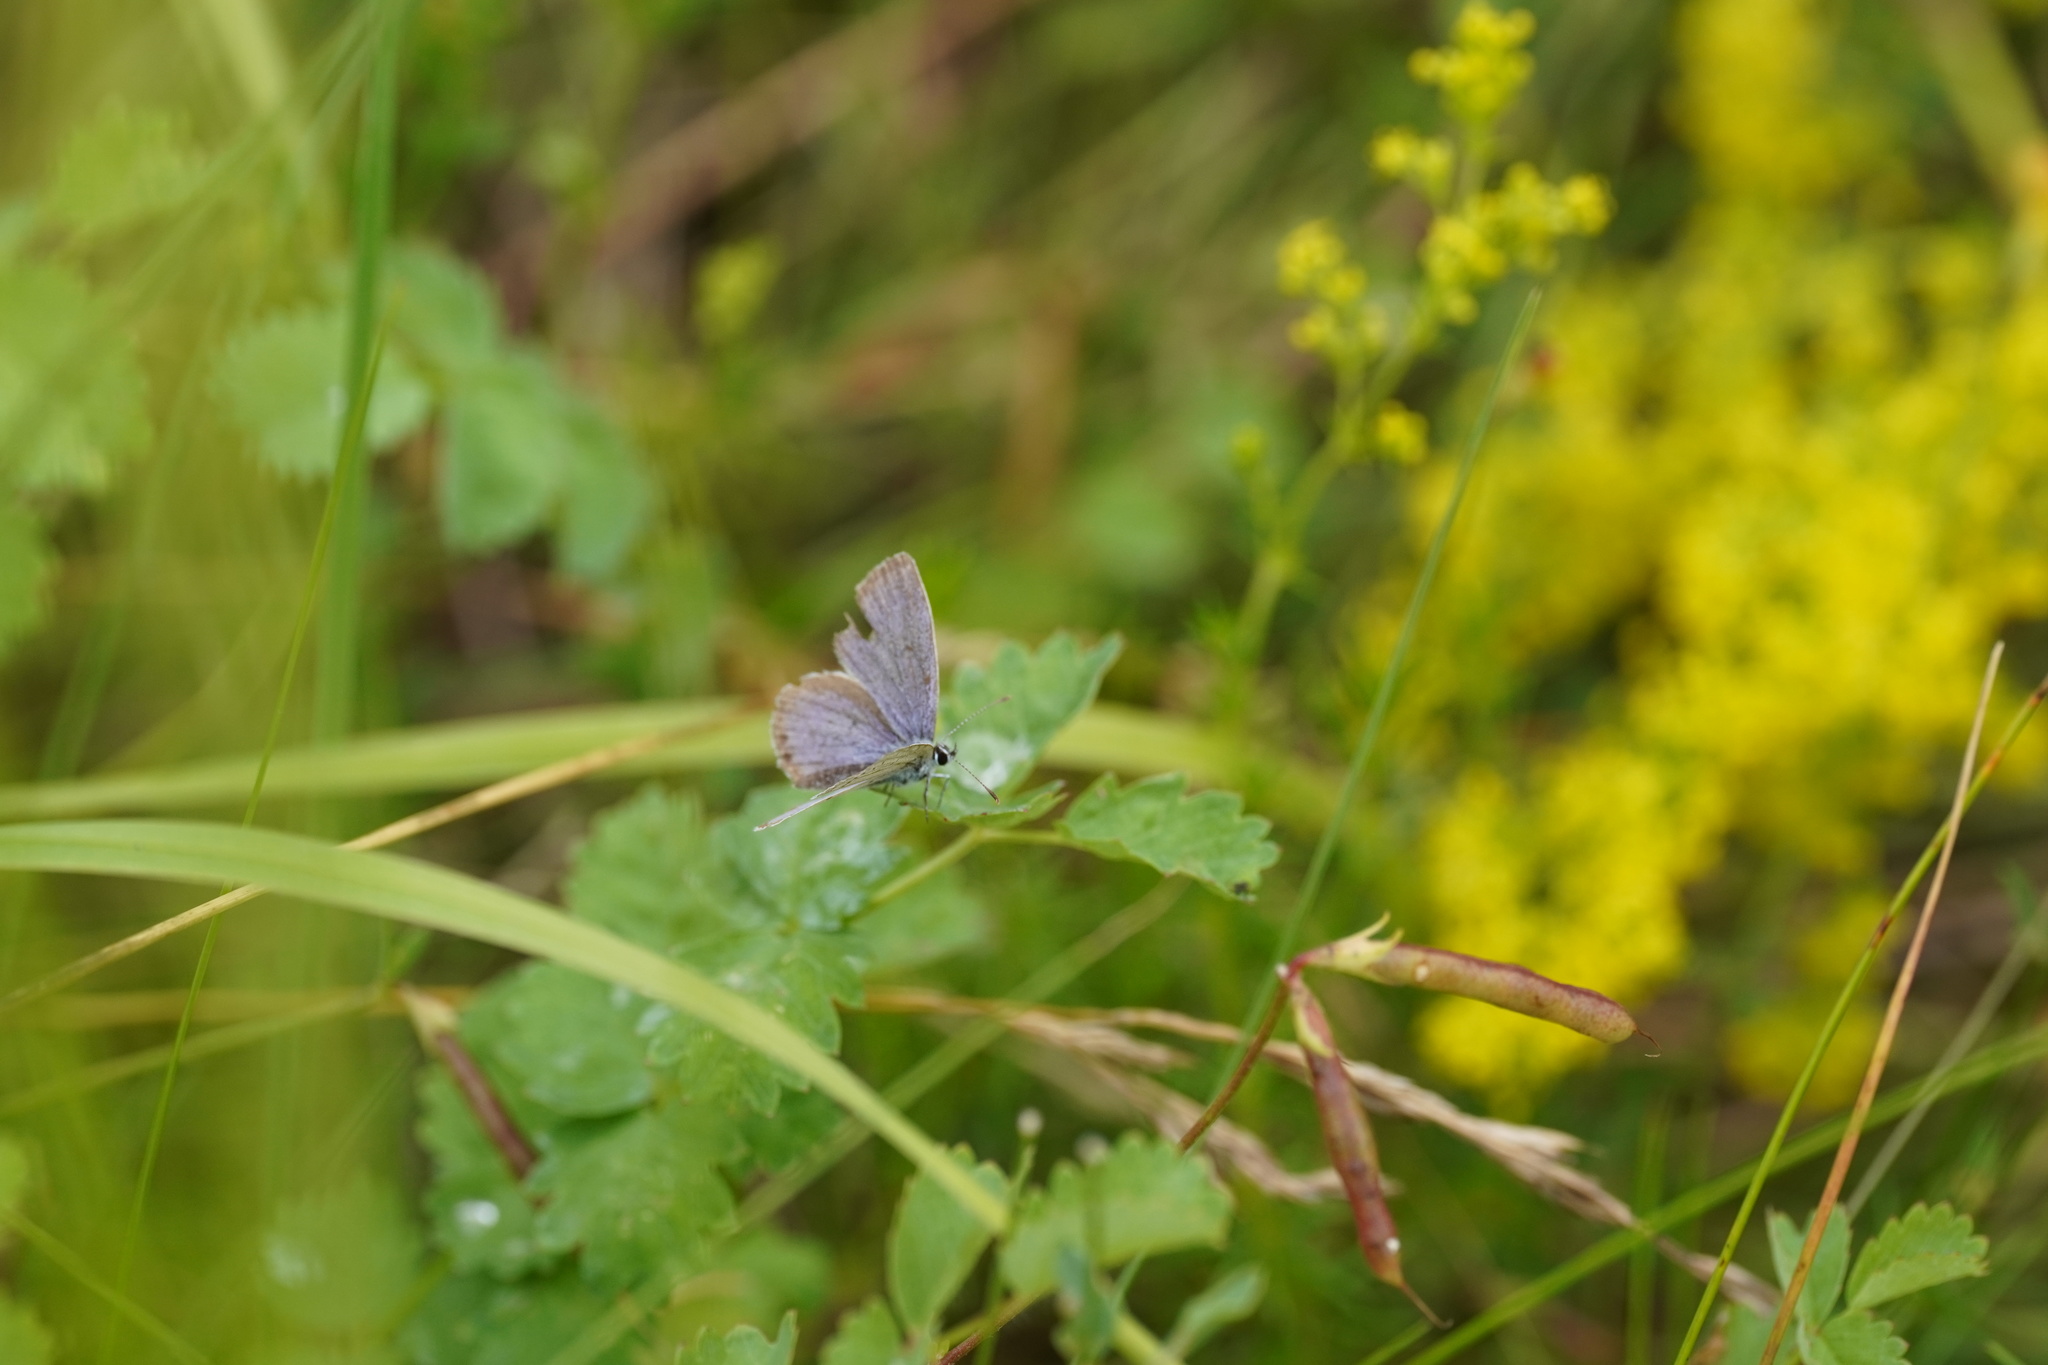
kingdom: Animalia
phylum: Arthropoda
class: Insecta
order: Lepidoptera
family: Lycaenidae
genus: Elkalyce
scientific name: Elkalyce argiades
